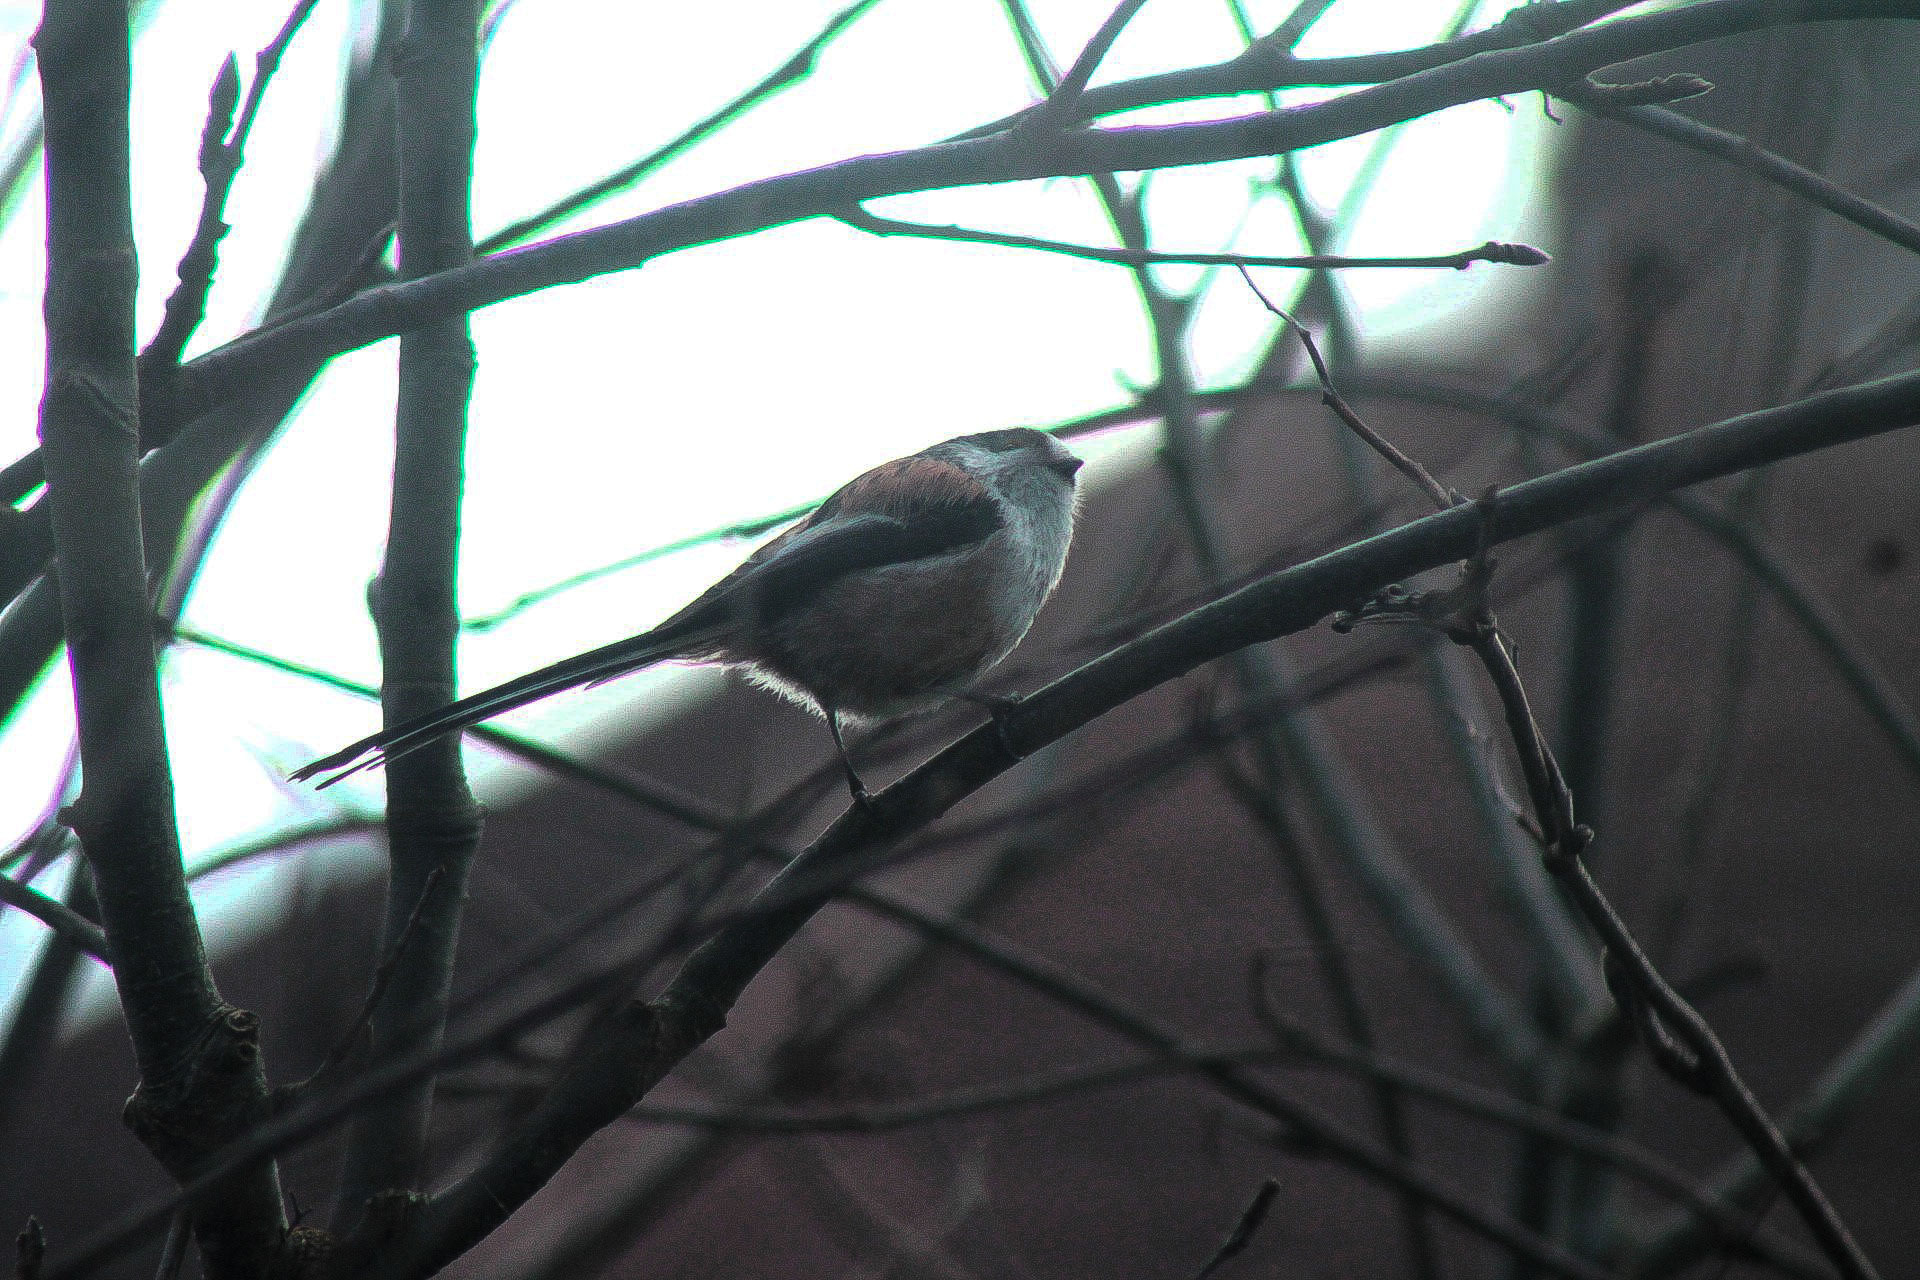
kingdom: Animalia
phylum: Chordata
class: Aves
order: Passeriformes
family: Aegithalidae
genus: Aegithalos
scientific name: Aegithalos caudatus
